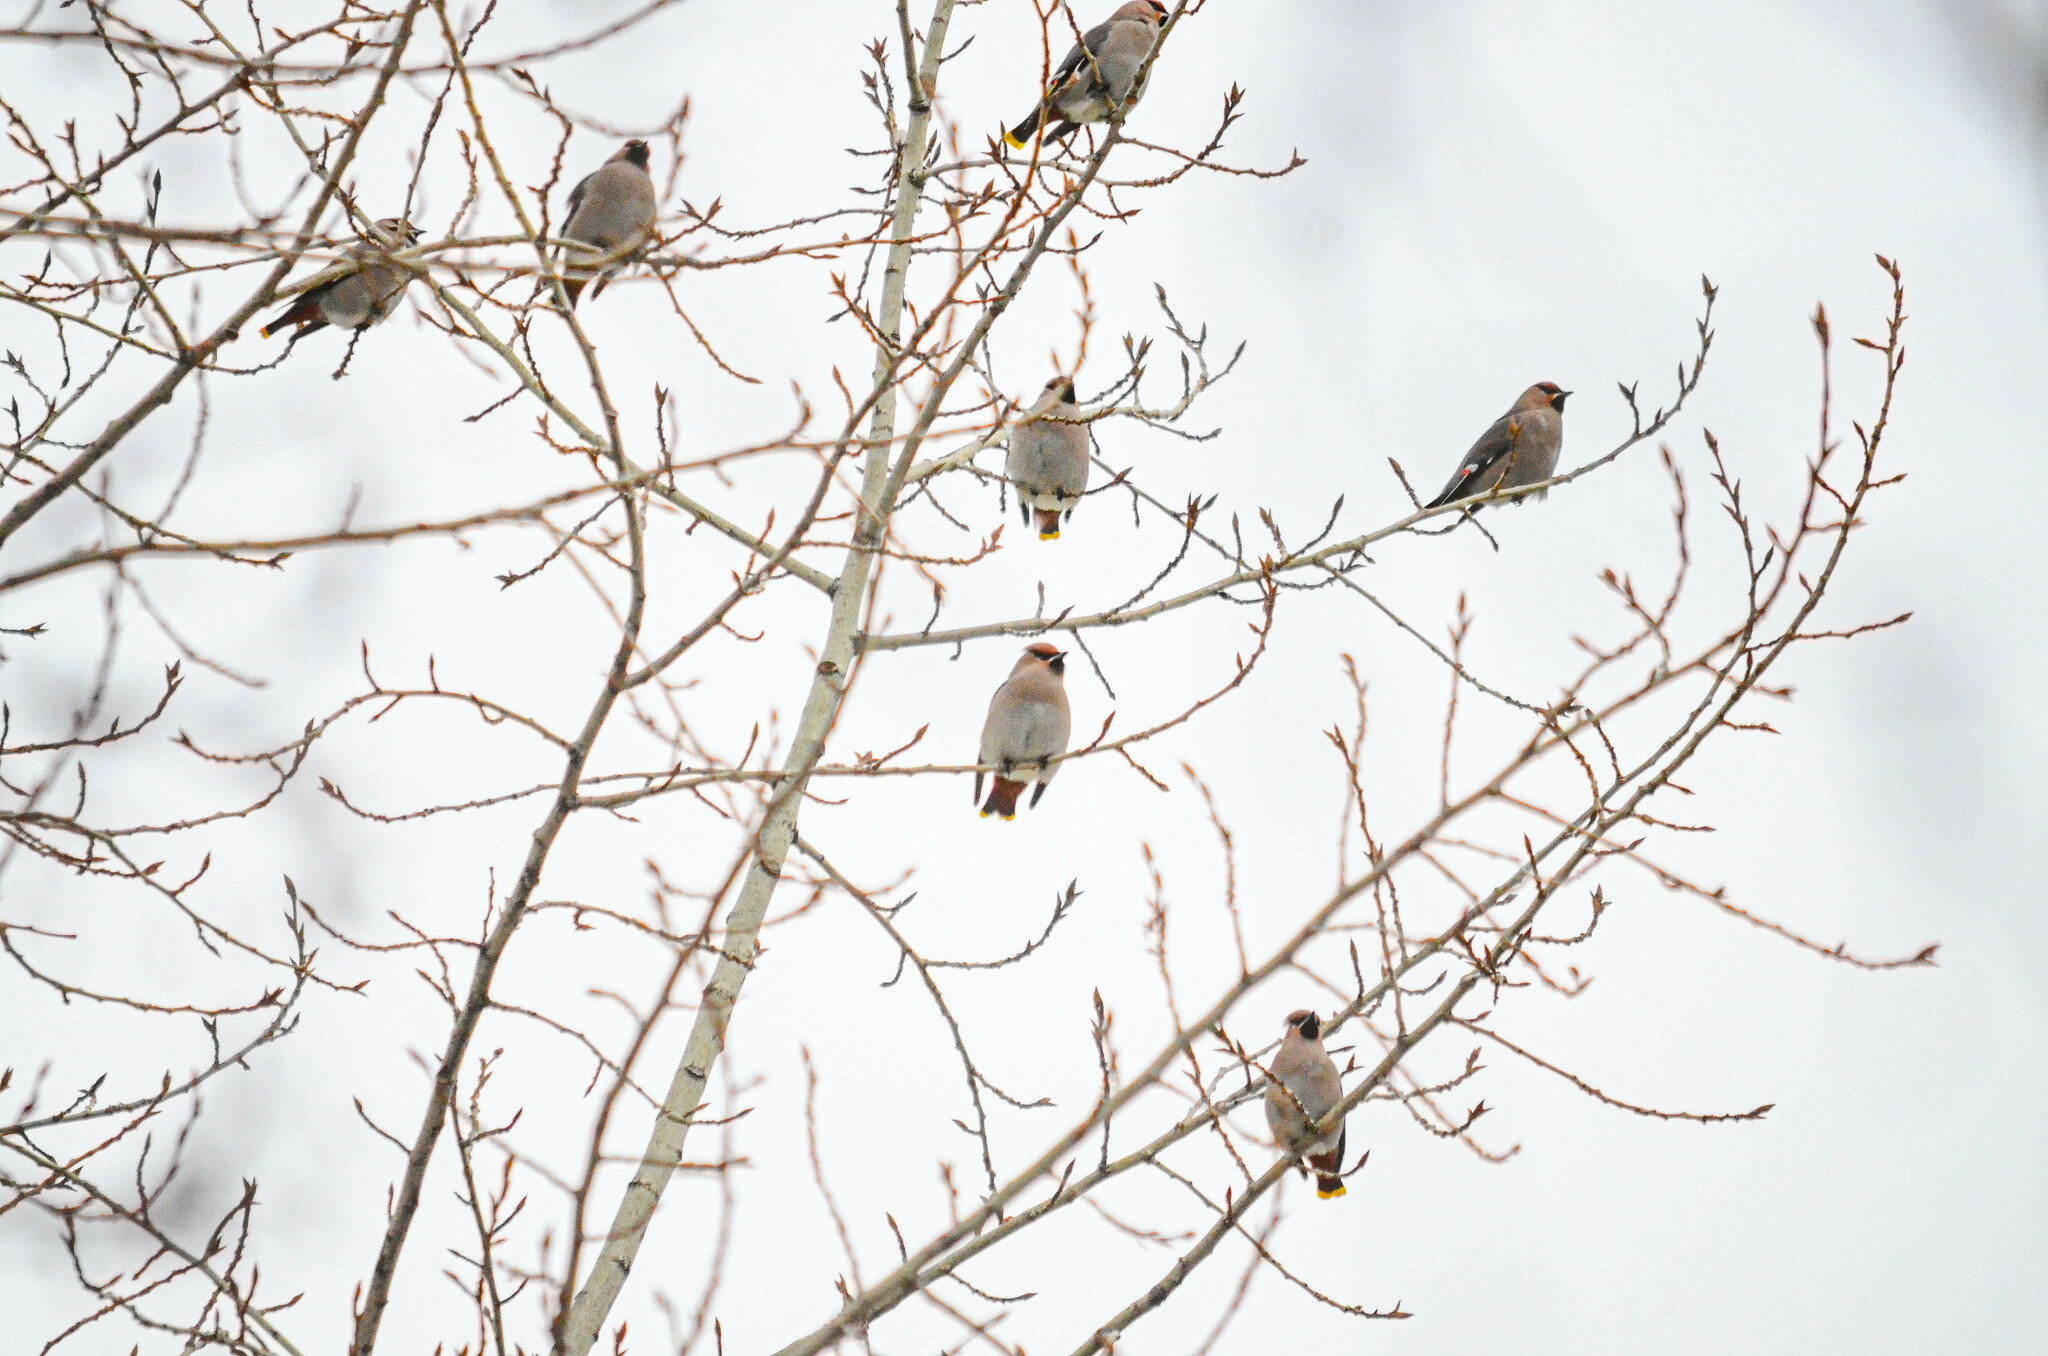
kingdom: Animalia
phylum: Chordata
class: Aves
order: Passeriformes
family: Bombycillidae
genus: Bombycilla
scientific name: Bombycilla garrulus
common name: Bohemian waxwing
